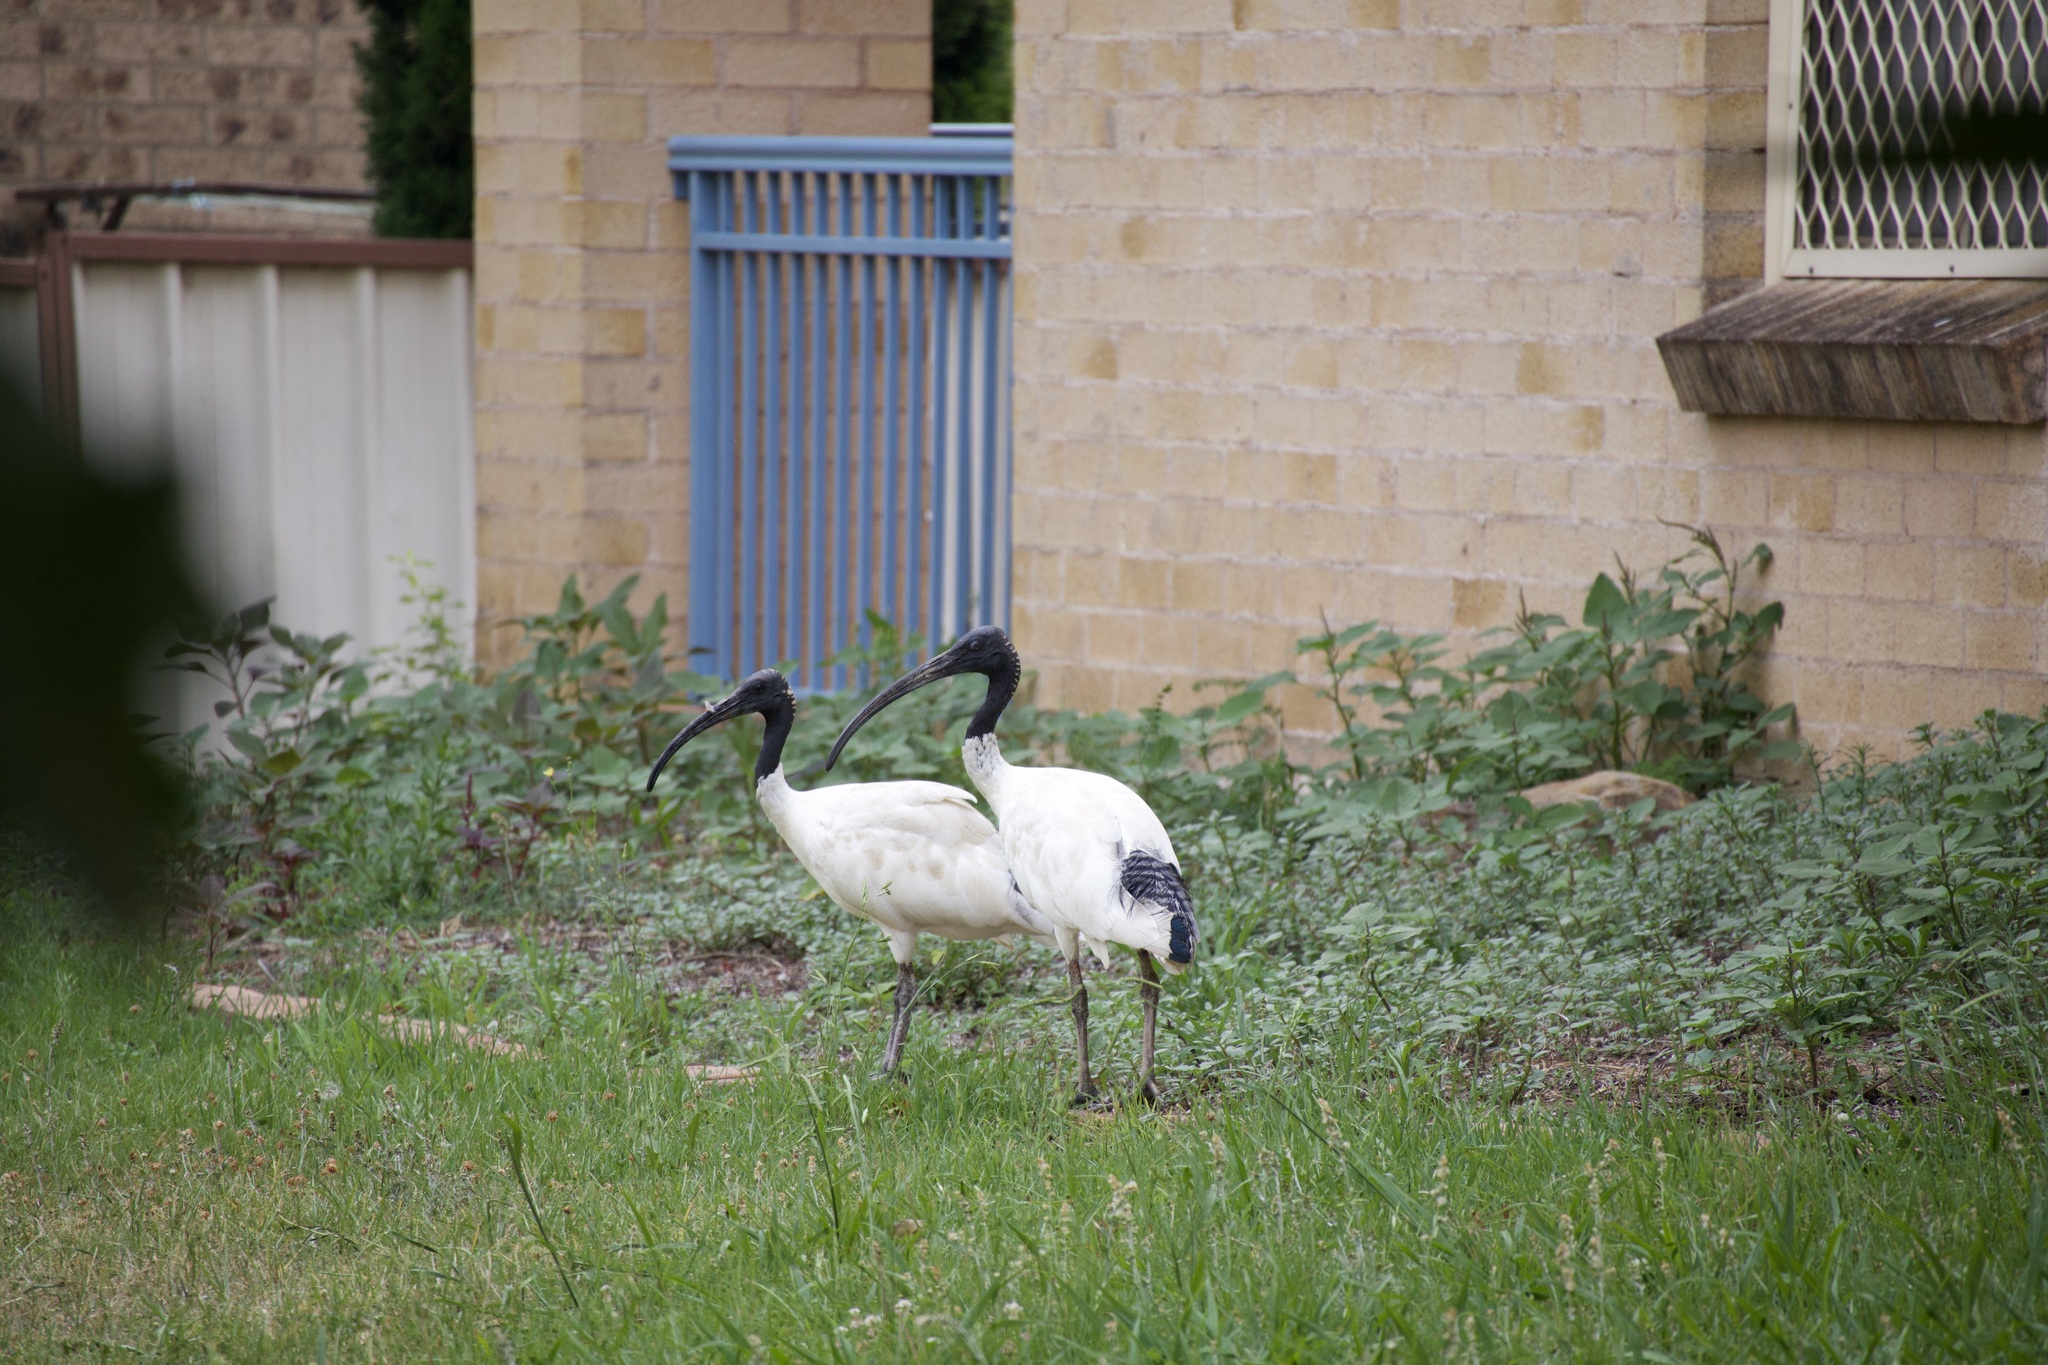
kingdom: Animalia
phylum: Chordata
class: Aves
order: Pelecaniformes
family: Threskiornithidae
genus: Threskiornis
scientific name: Threskiornis molucca
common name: Australian white ibis
